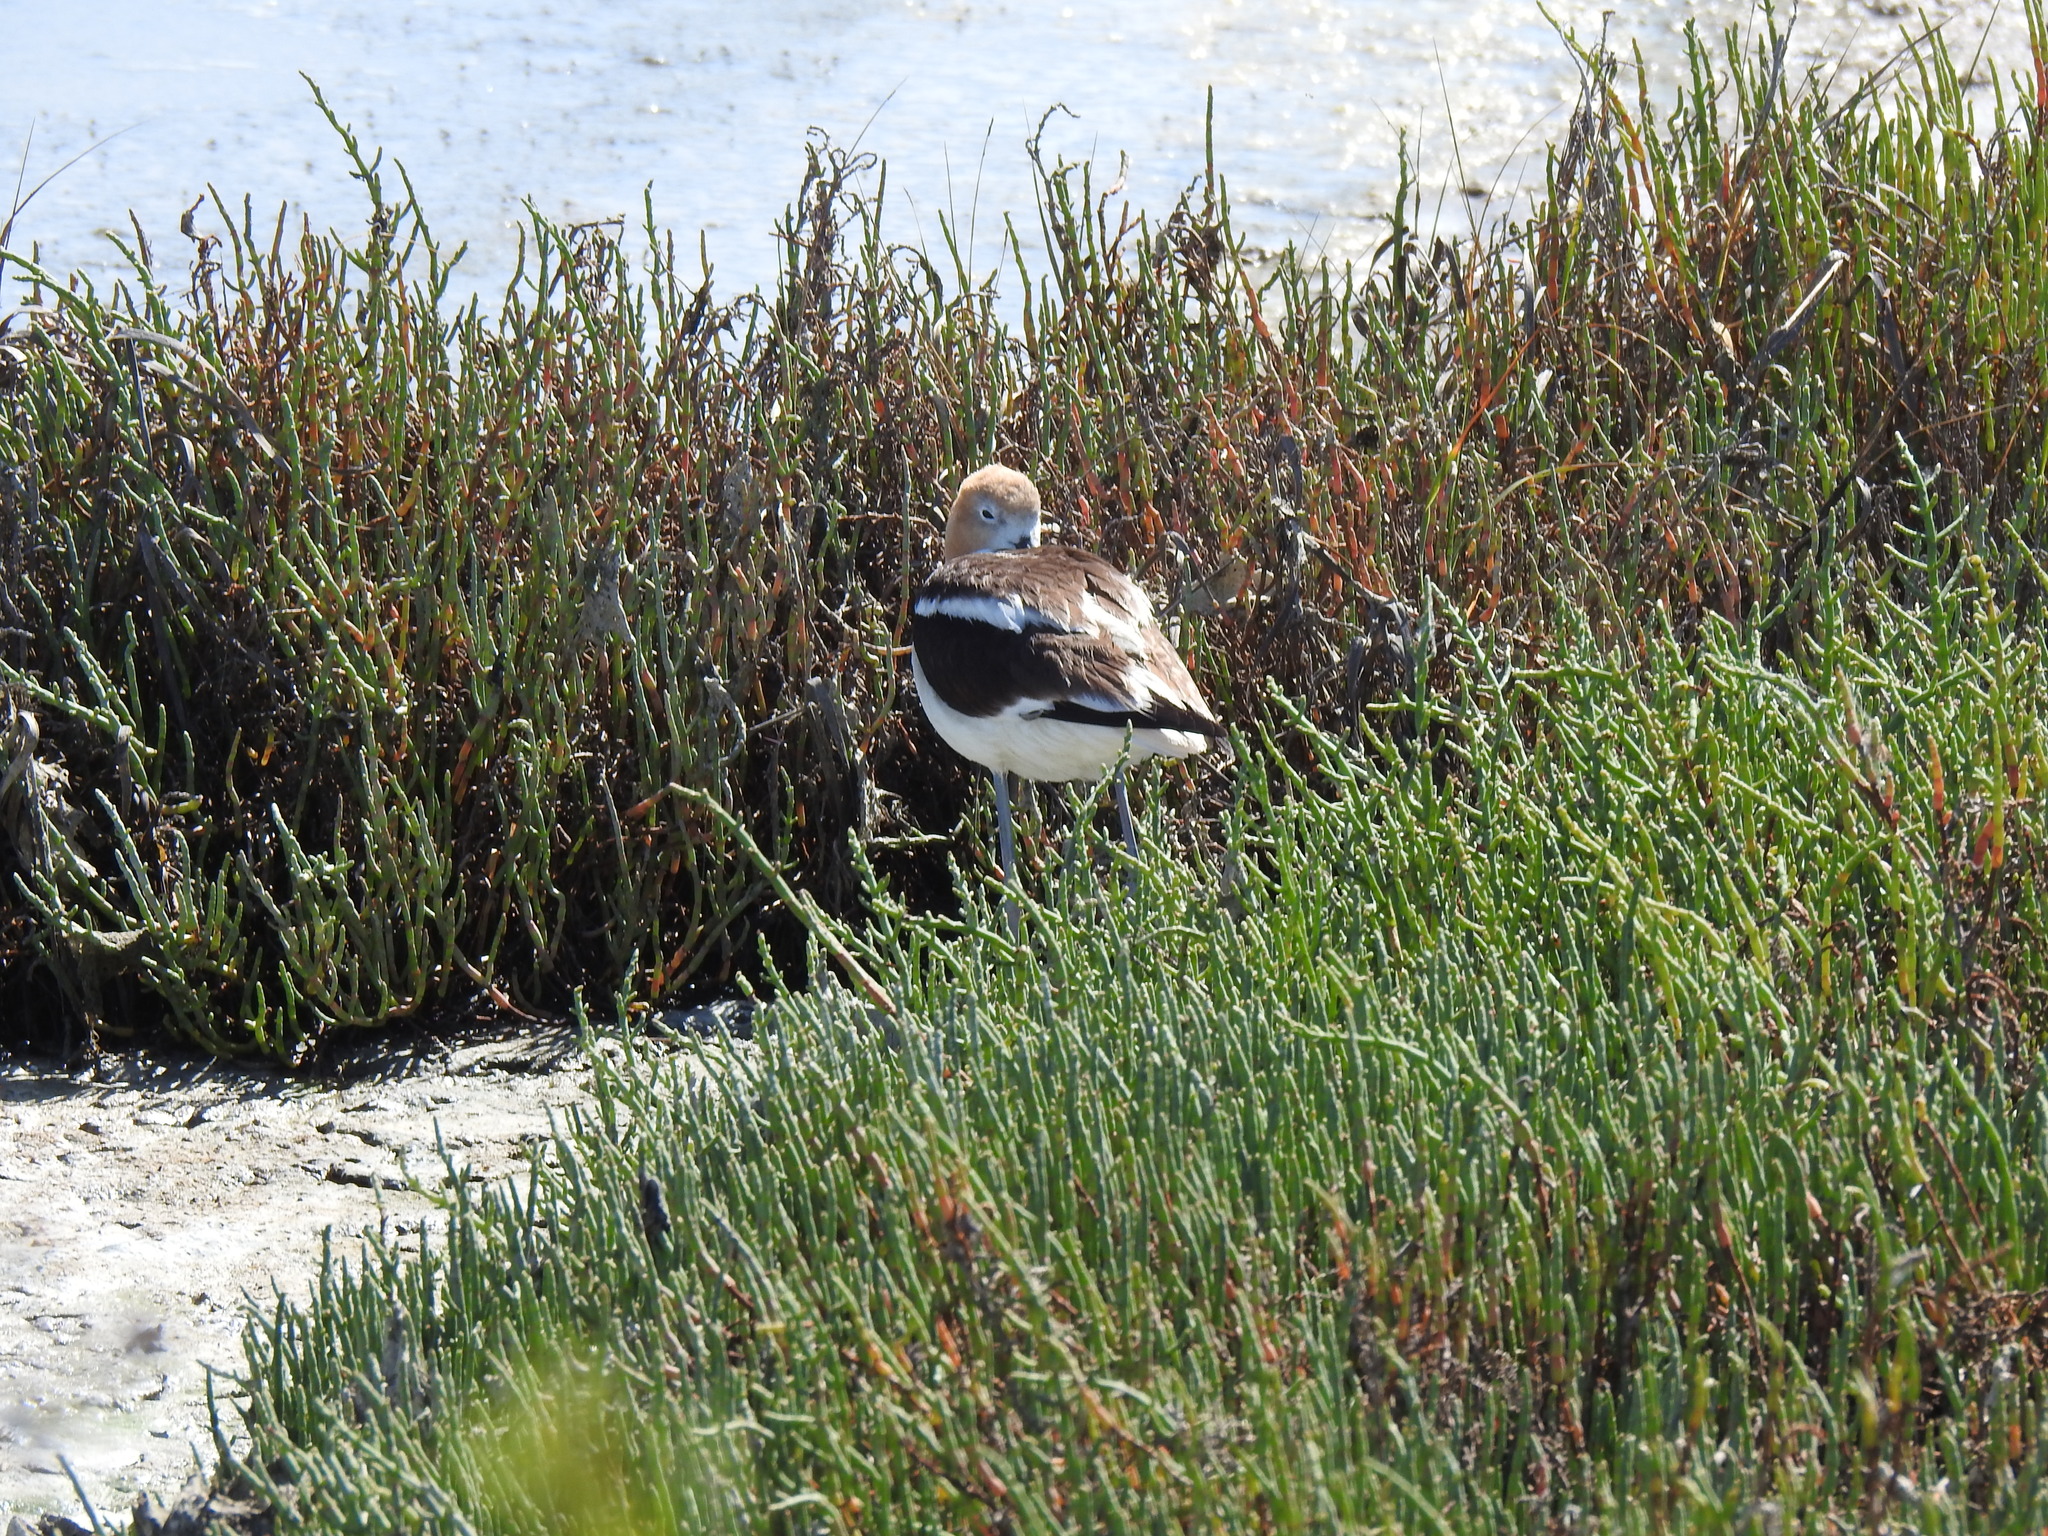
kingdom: Animalia
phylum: Chordata
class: Aves
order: Charadriiformes
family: Recurvirostridae
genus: Recurvirostra
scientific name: Recurvirostra americana
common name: American avocet
